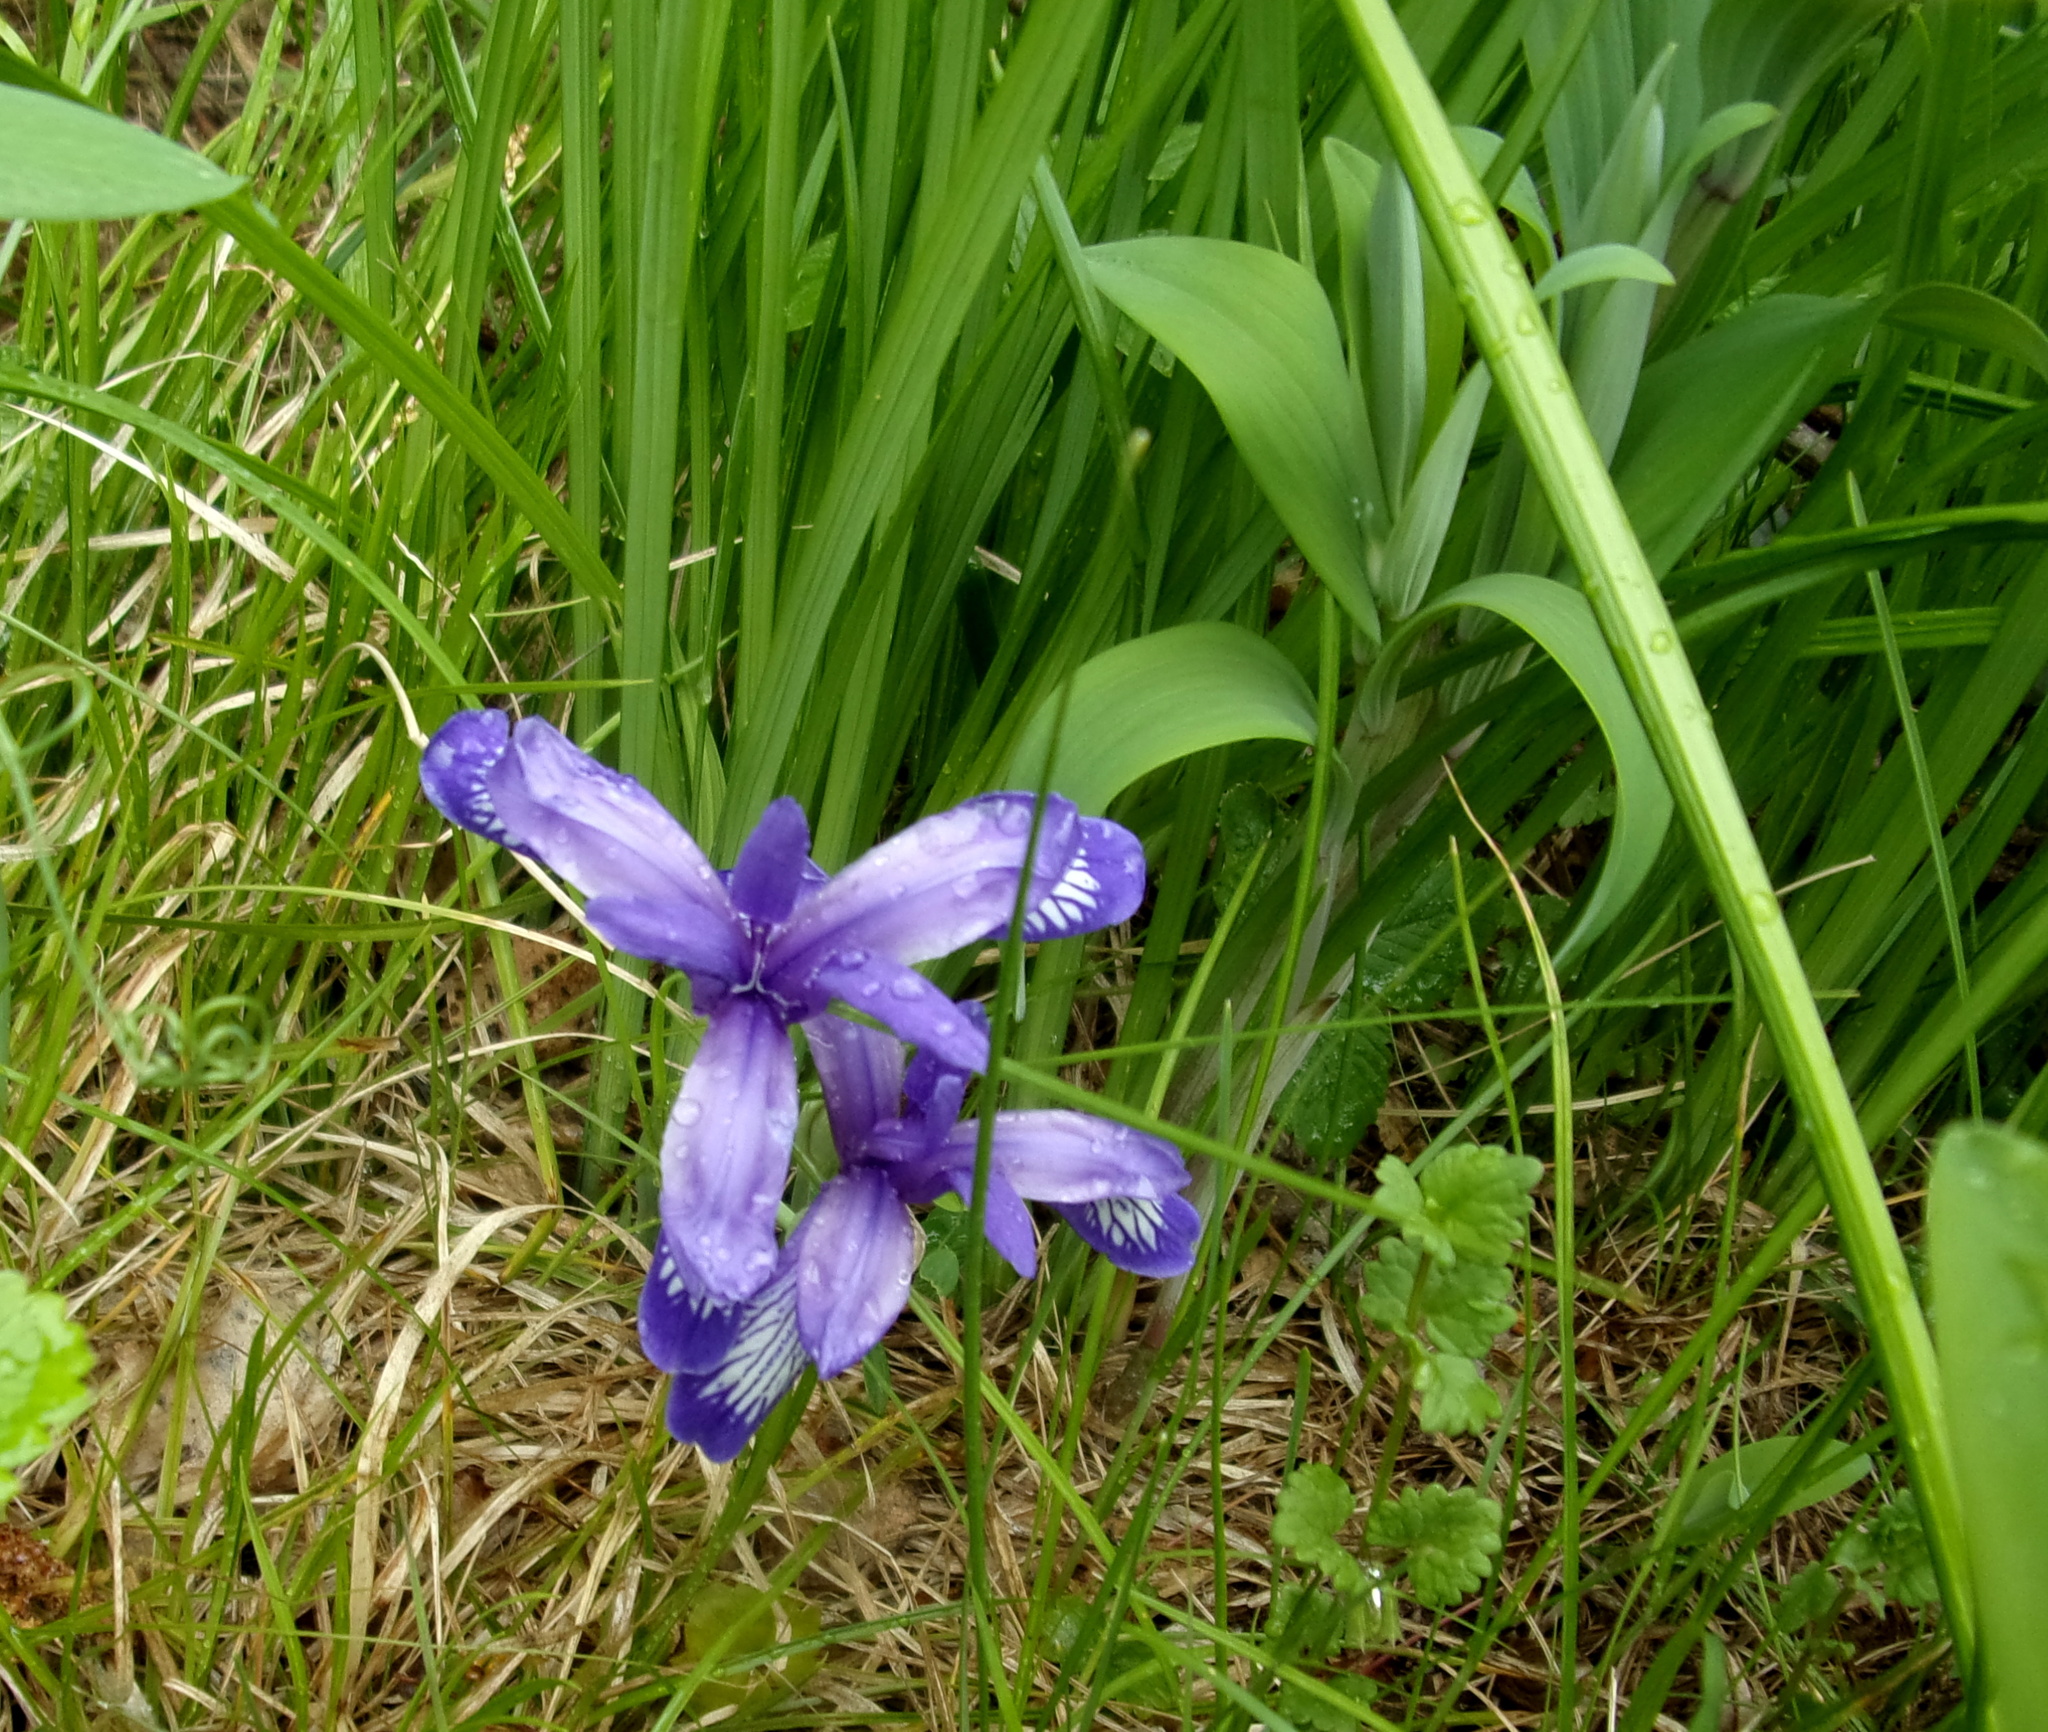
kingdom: Plantae
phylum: Tracheophyta
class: Liliopsida
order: Asparagales
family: Iridaceae
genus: Iris
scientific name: Iris ruthenica
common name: Purple-bract iris
